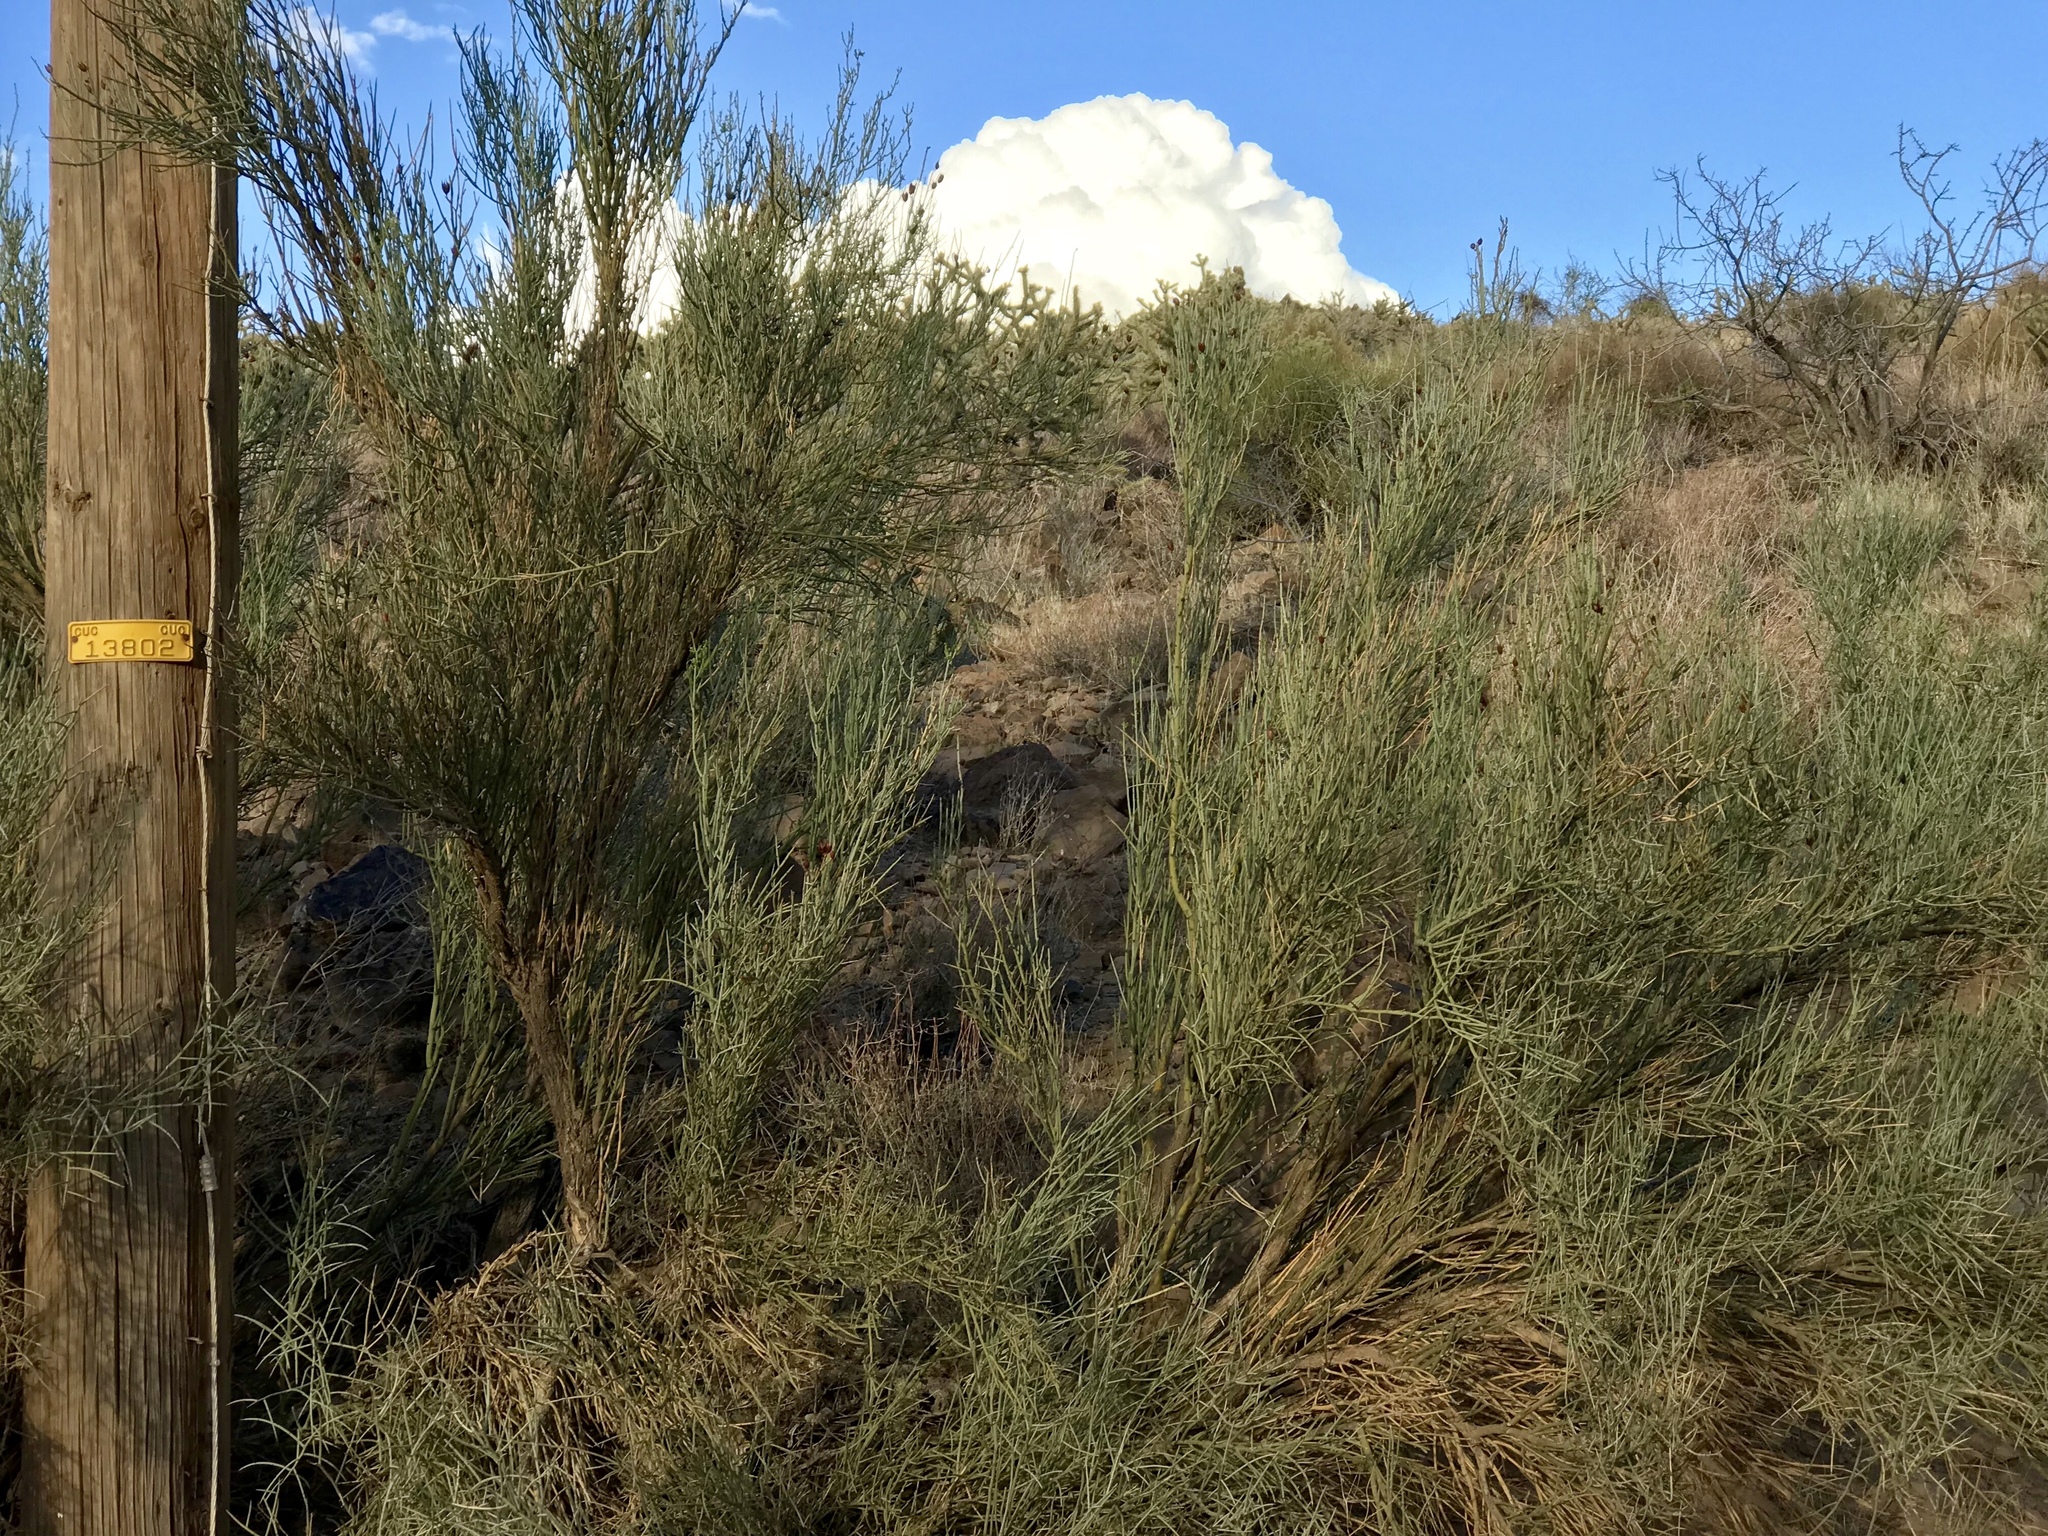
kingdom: Plantae
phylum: Tracheophyta
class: Magnoliopsida
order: Celastrales
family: Celastraceae
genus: Canotia
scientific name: Canotia holacantha
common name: Crucifixion thorns
